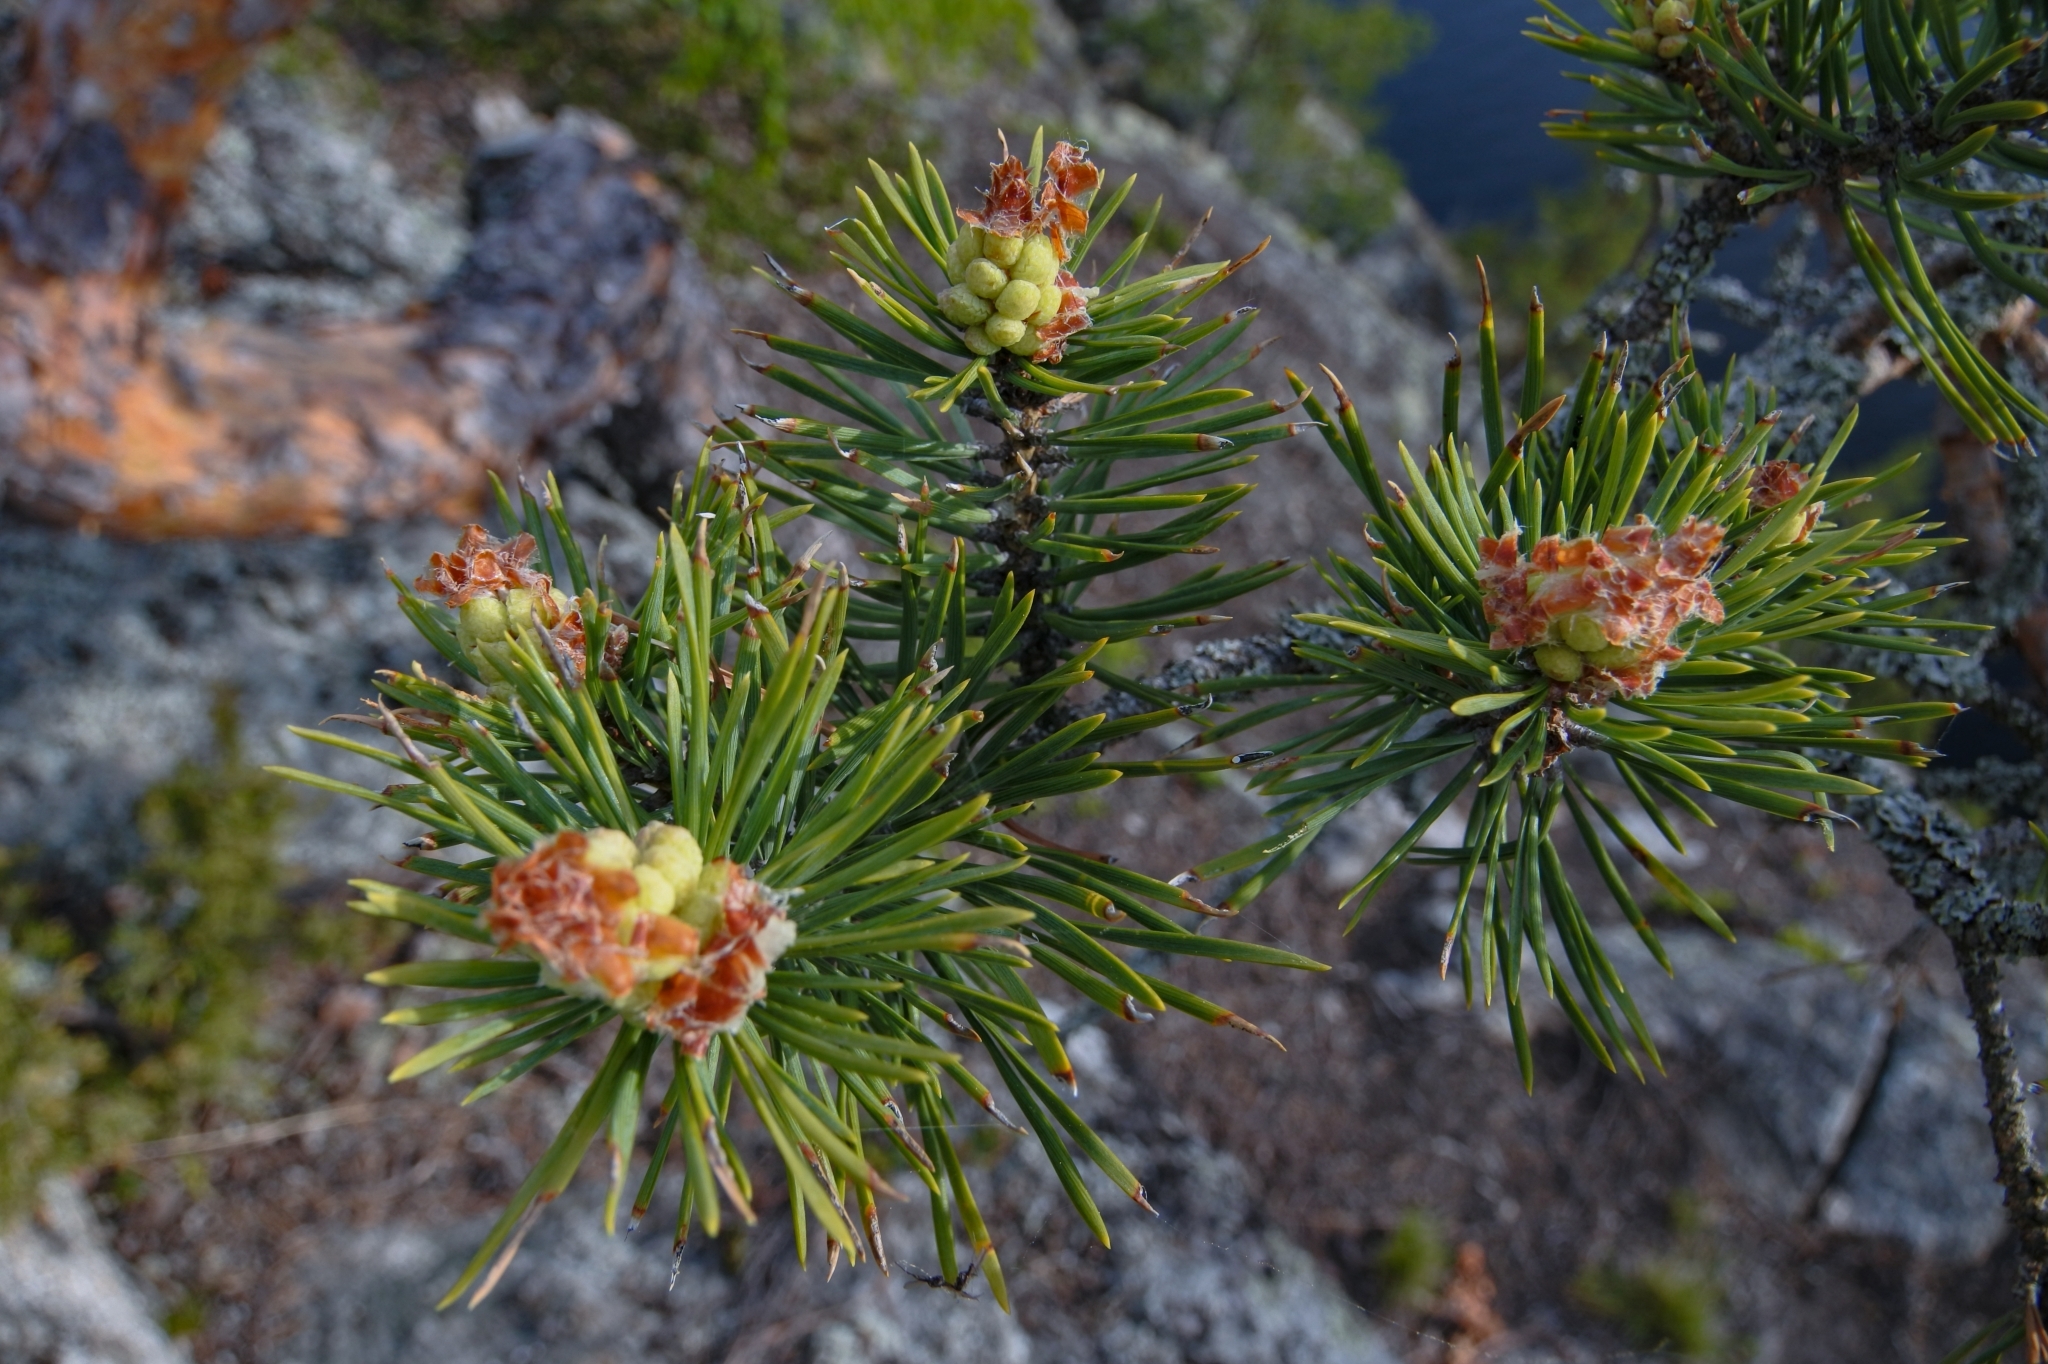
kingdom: Plantae
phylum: Tracheophyta
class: Pinopsida
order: Pinales
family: Pinaceae
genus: Pinus
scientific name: Pinus sylvestris
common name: Scots pine
